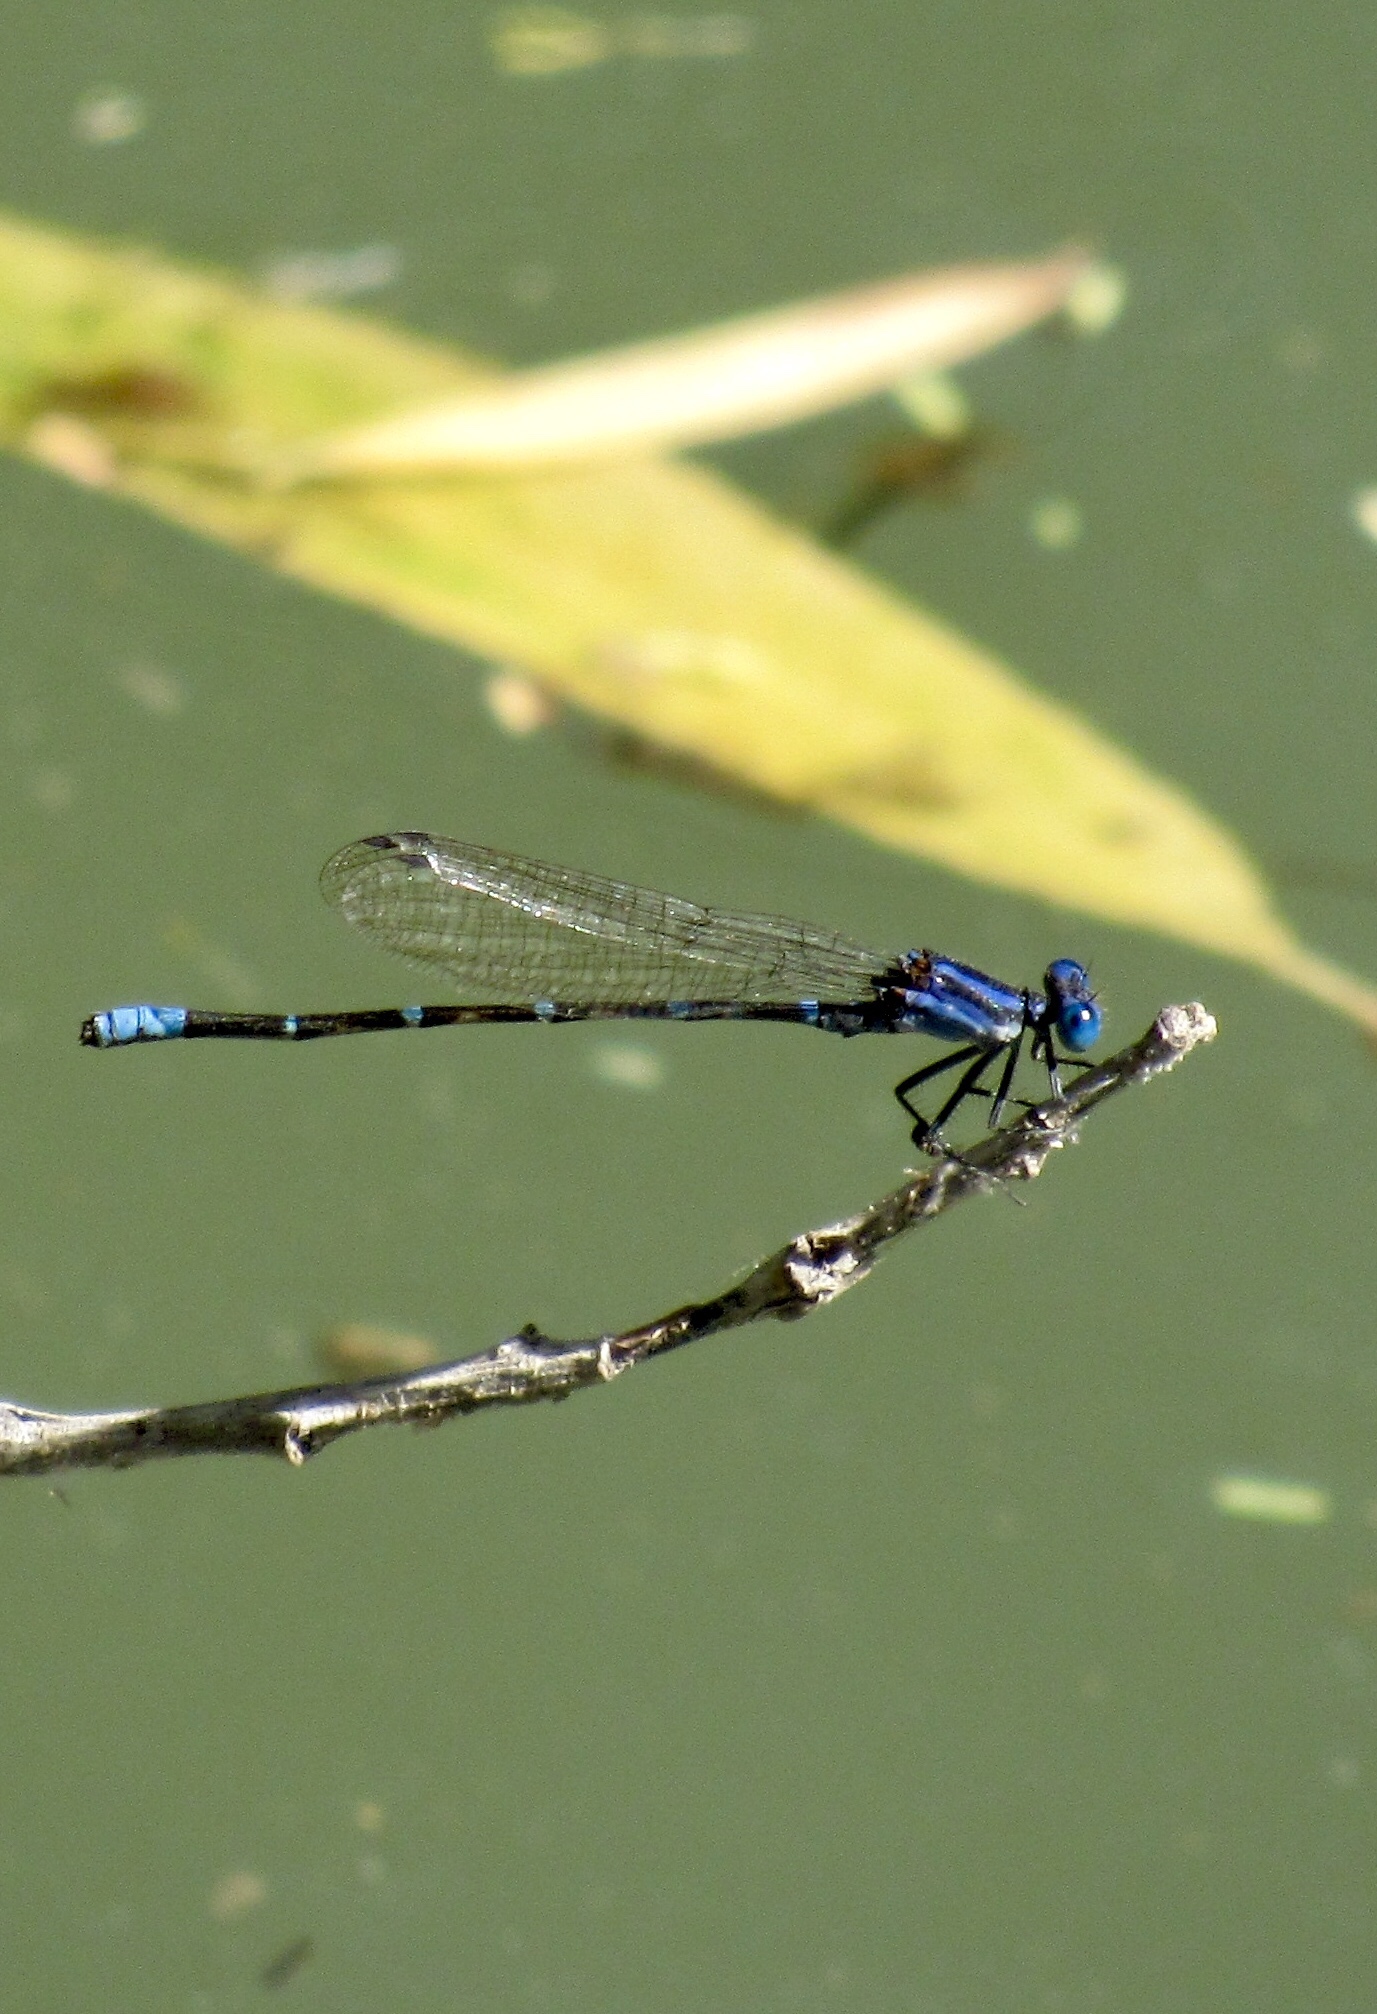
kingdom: Animalia
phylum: Arthropoda
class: Insecta
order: Odonata
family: Coenagrionidae
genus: Argia
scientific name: Argia sedula
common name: Blue-ringed dancer
